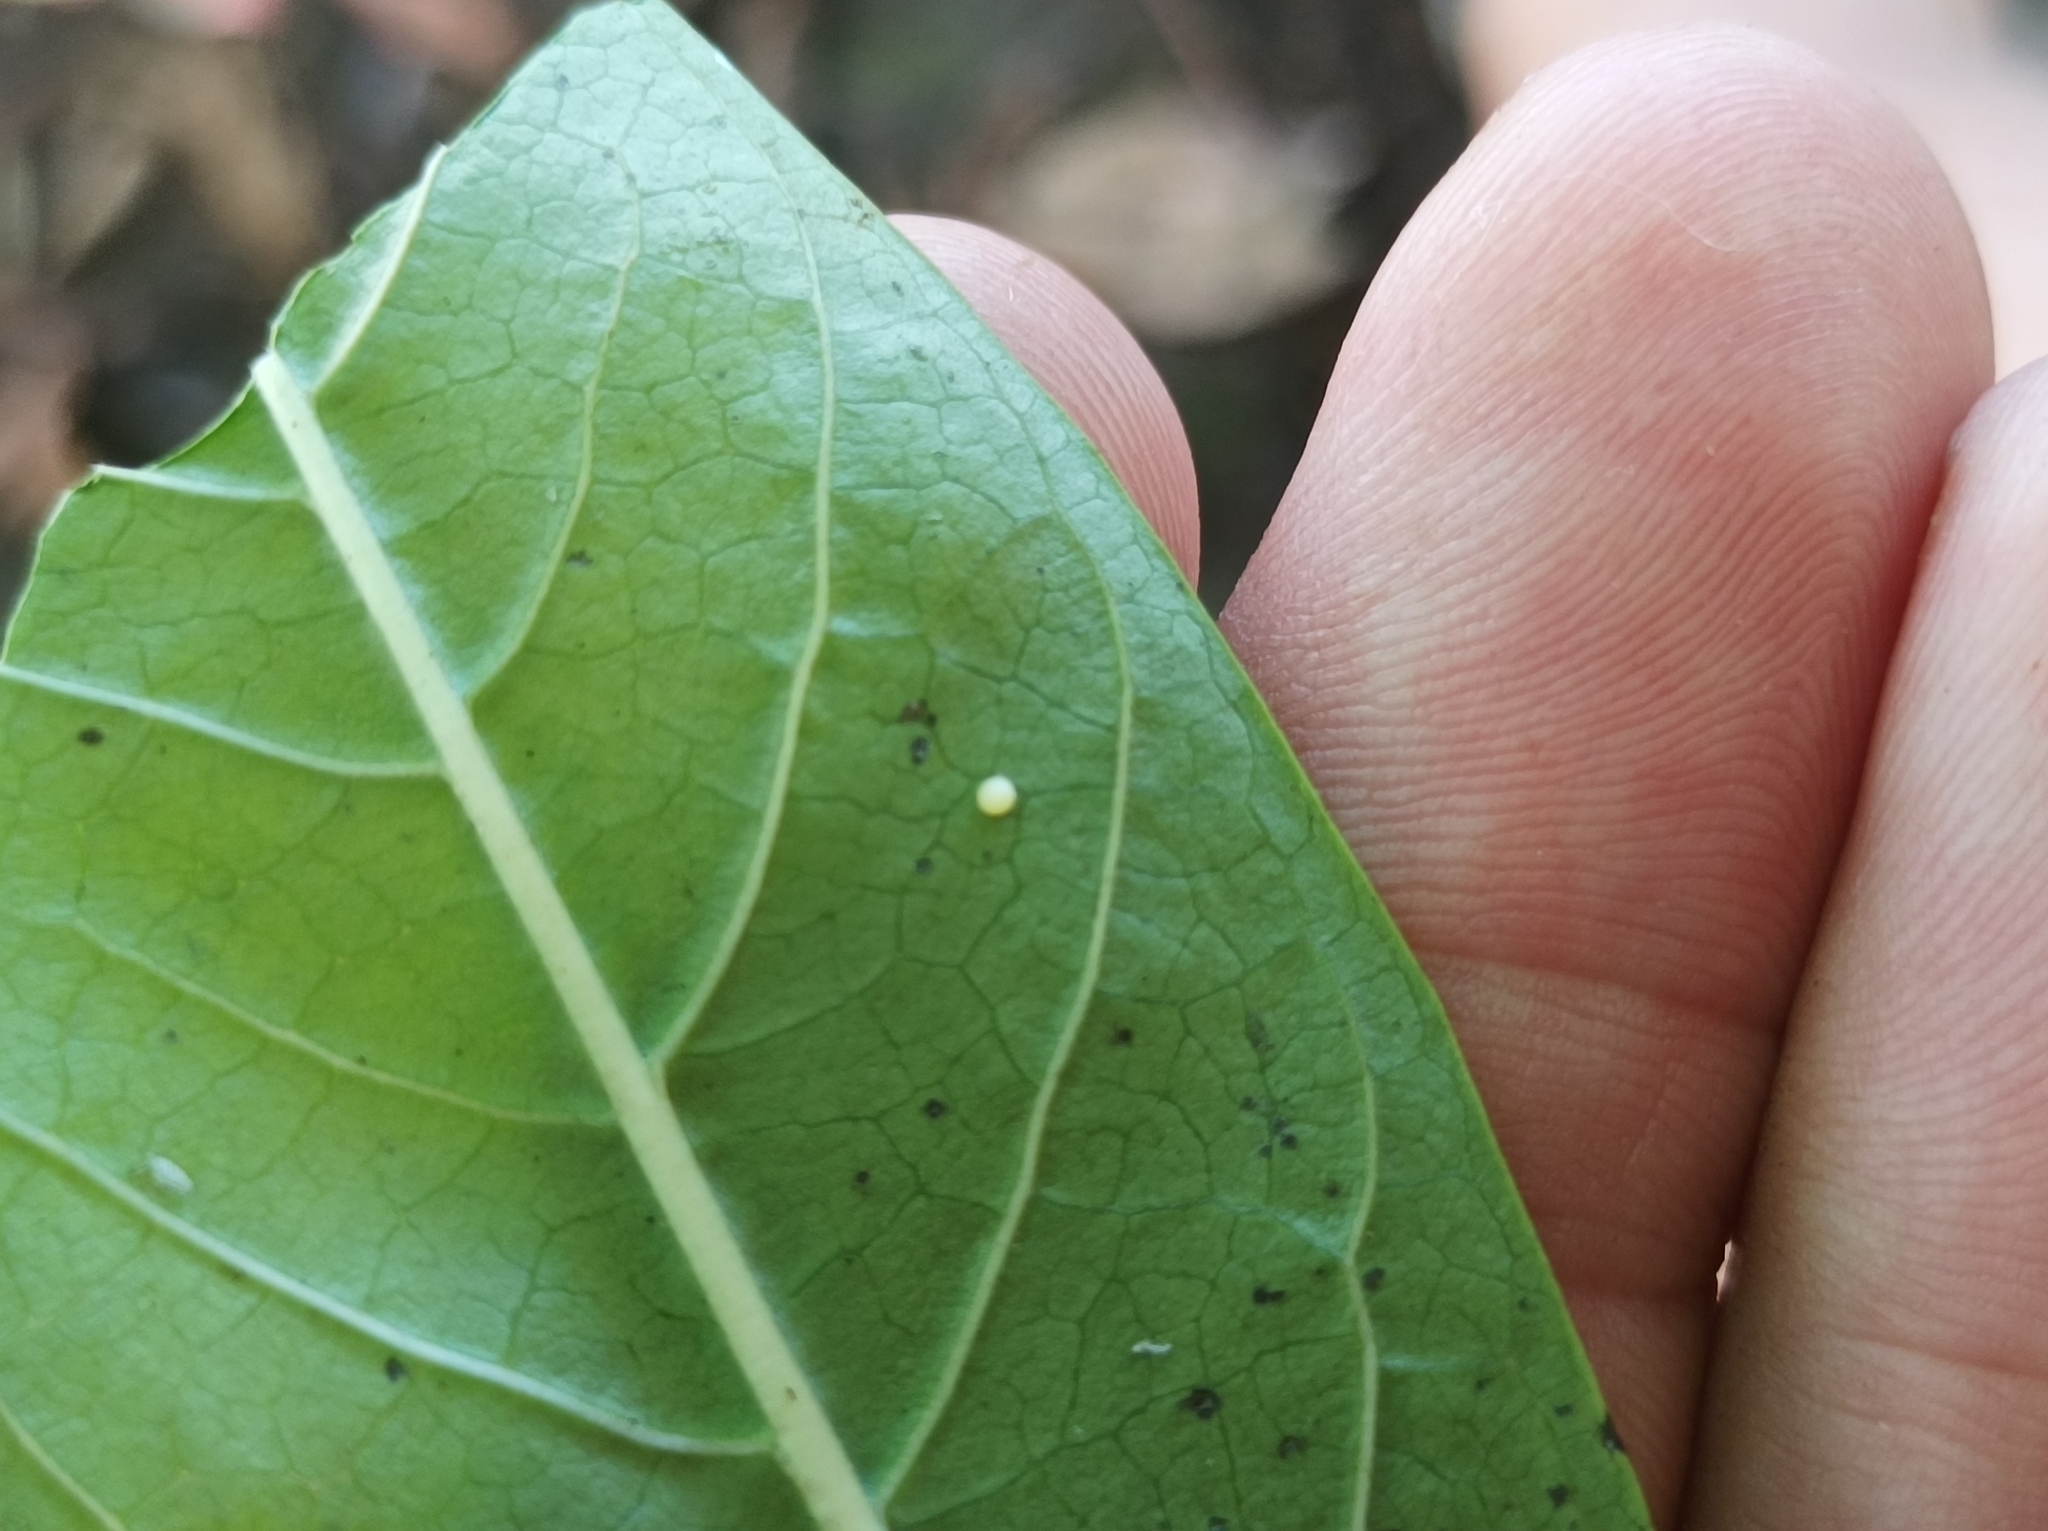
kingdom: Animalia
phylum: Arthropoda
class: Insecta
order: Lepidoptera
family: Nymphalidae
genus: Danaus
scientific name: Danaus plexippus
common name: Monarch
